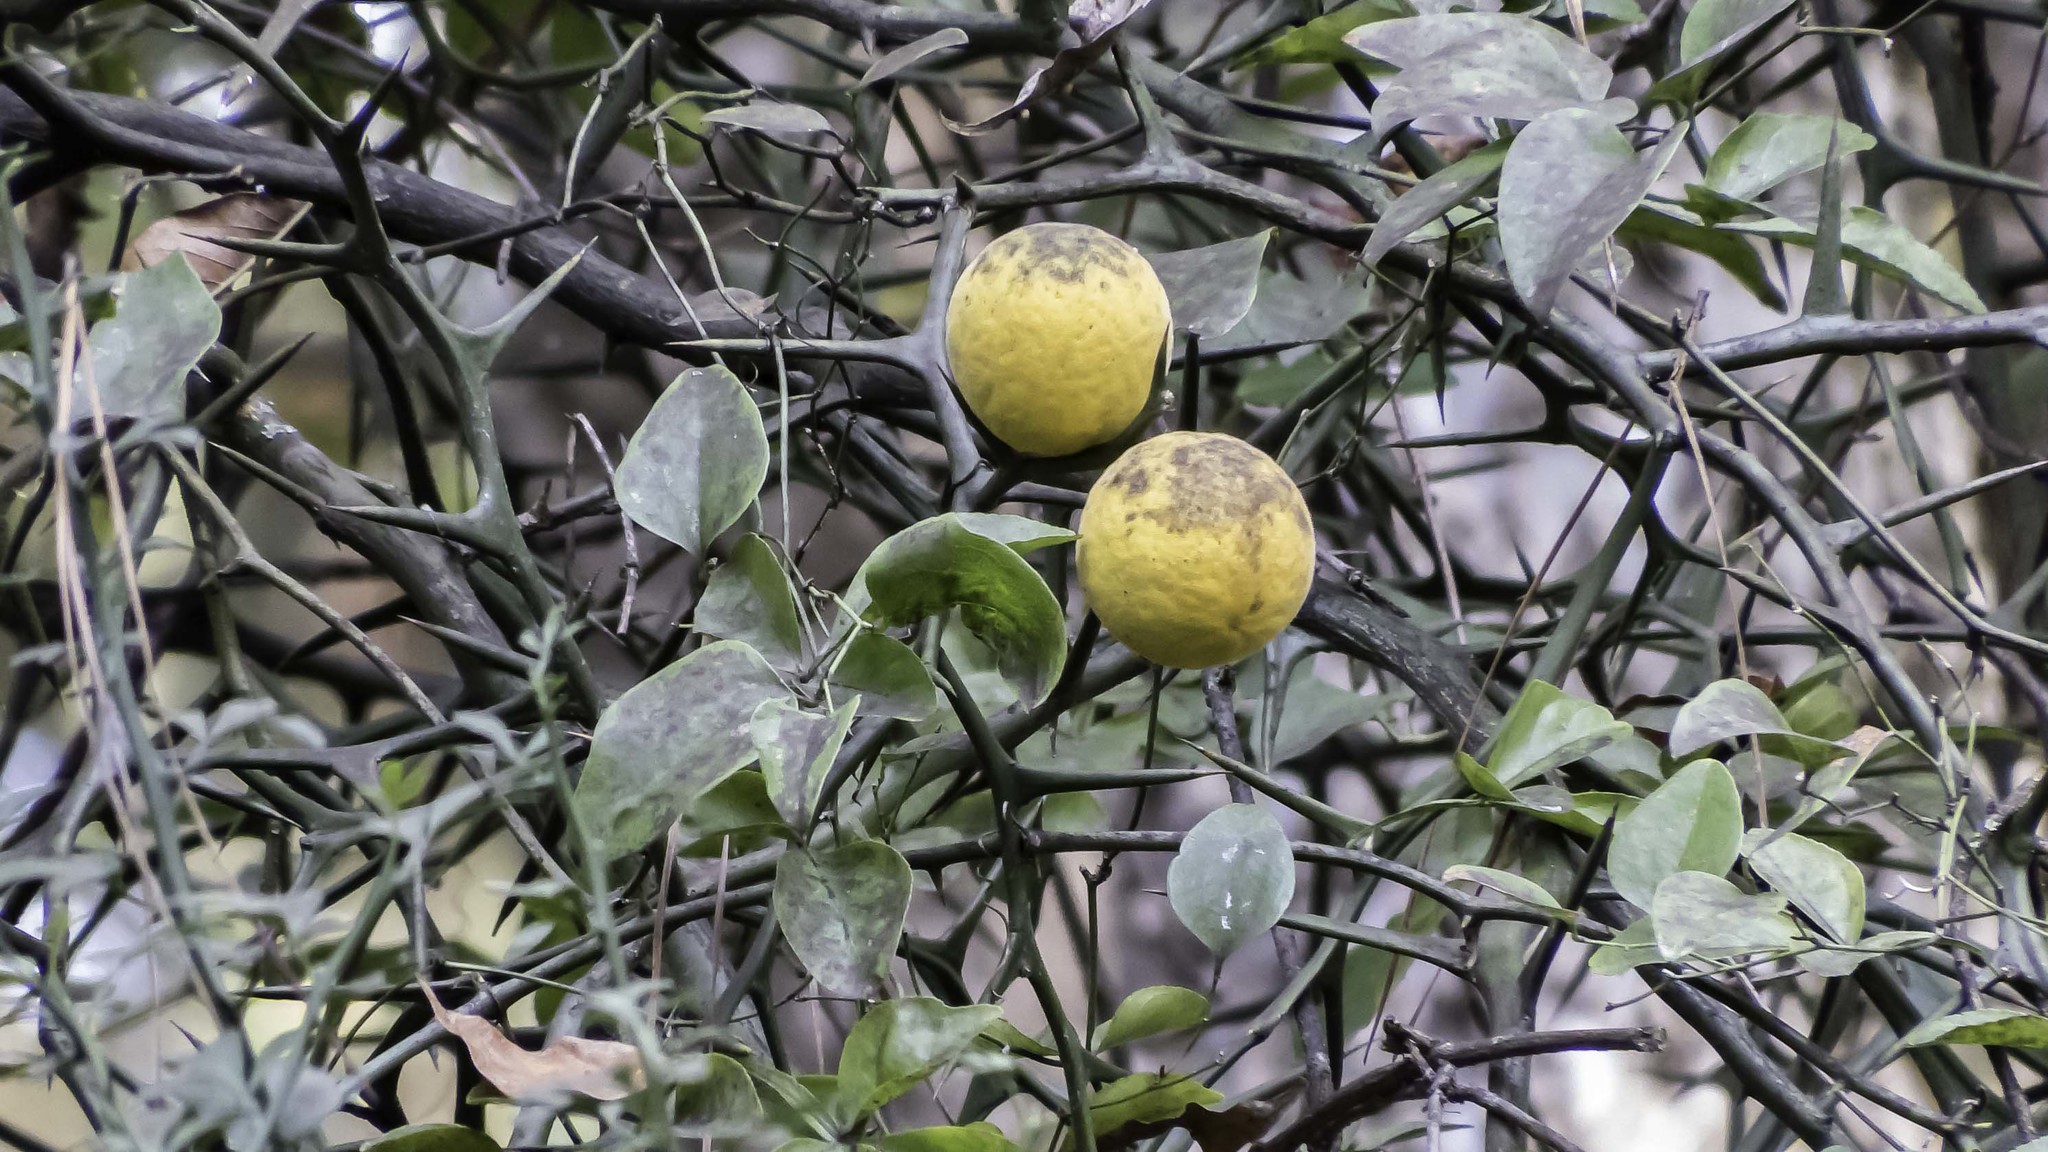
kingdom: Plantae
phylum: Tracheophyta
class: Magnoliopsida
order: Sapindales
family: Rutaceae
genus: Citrus
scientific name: Citrus trifoliata
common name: Japanese bitter-orange
